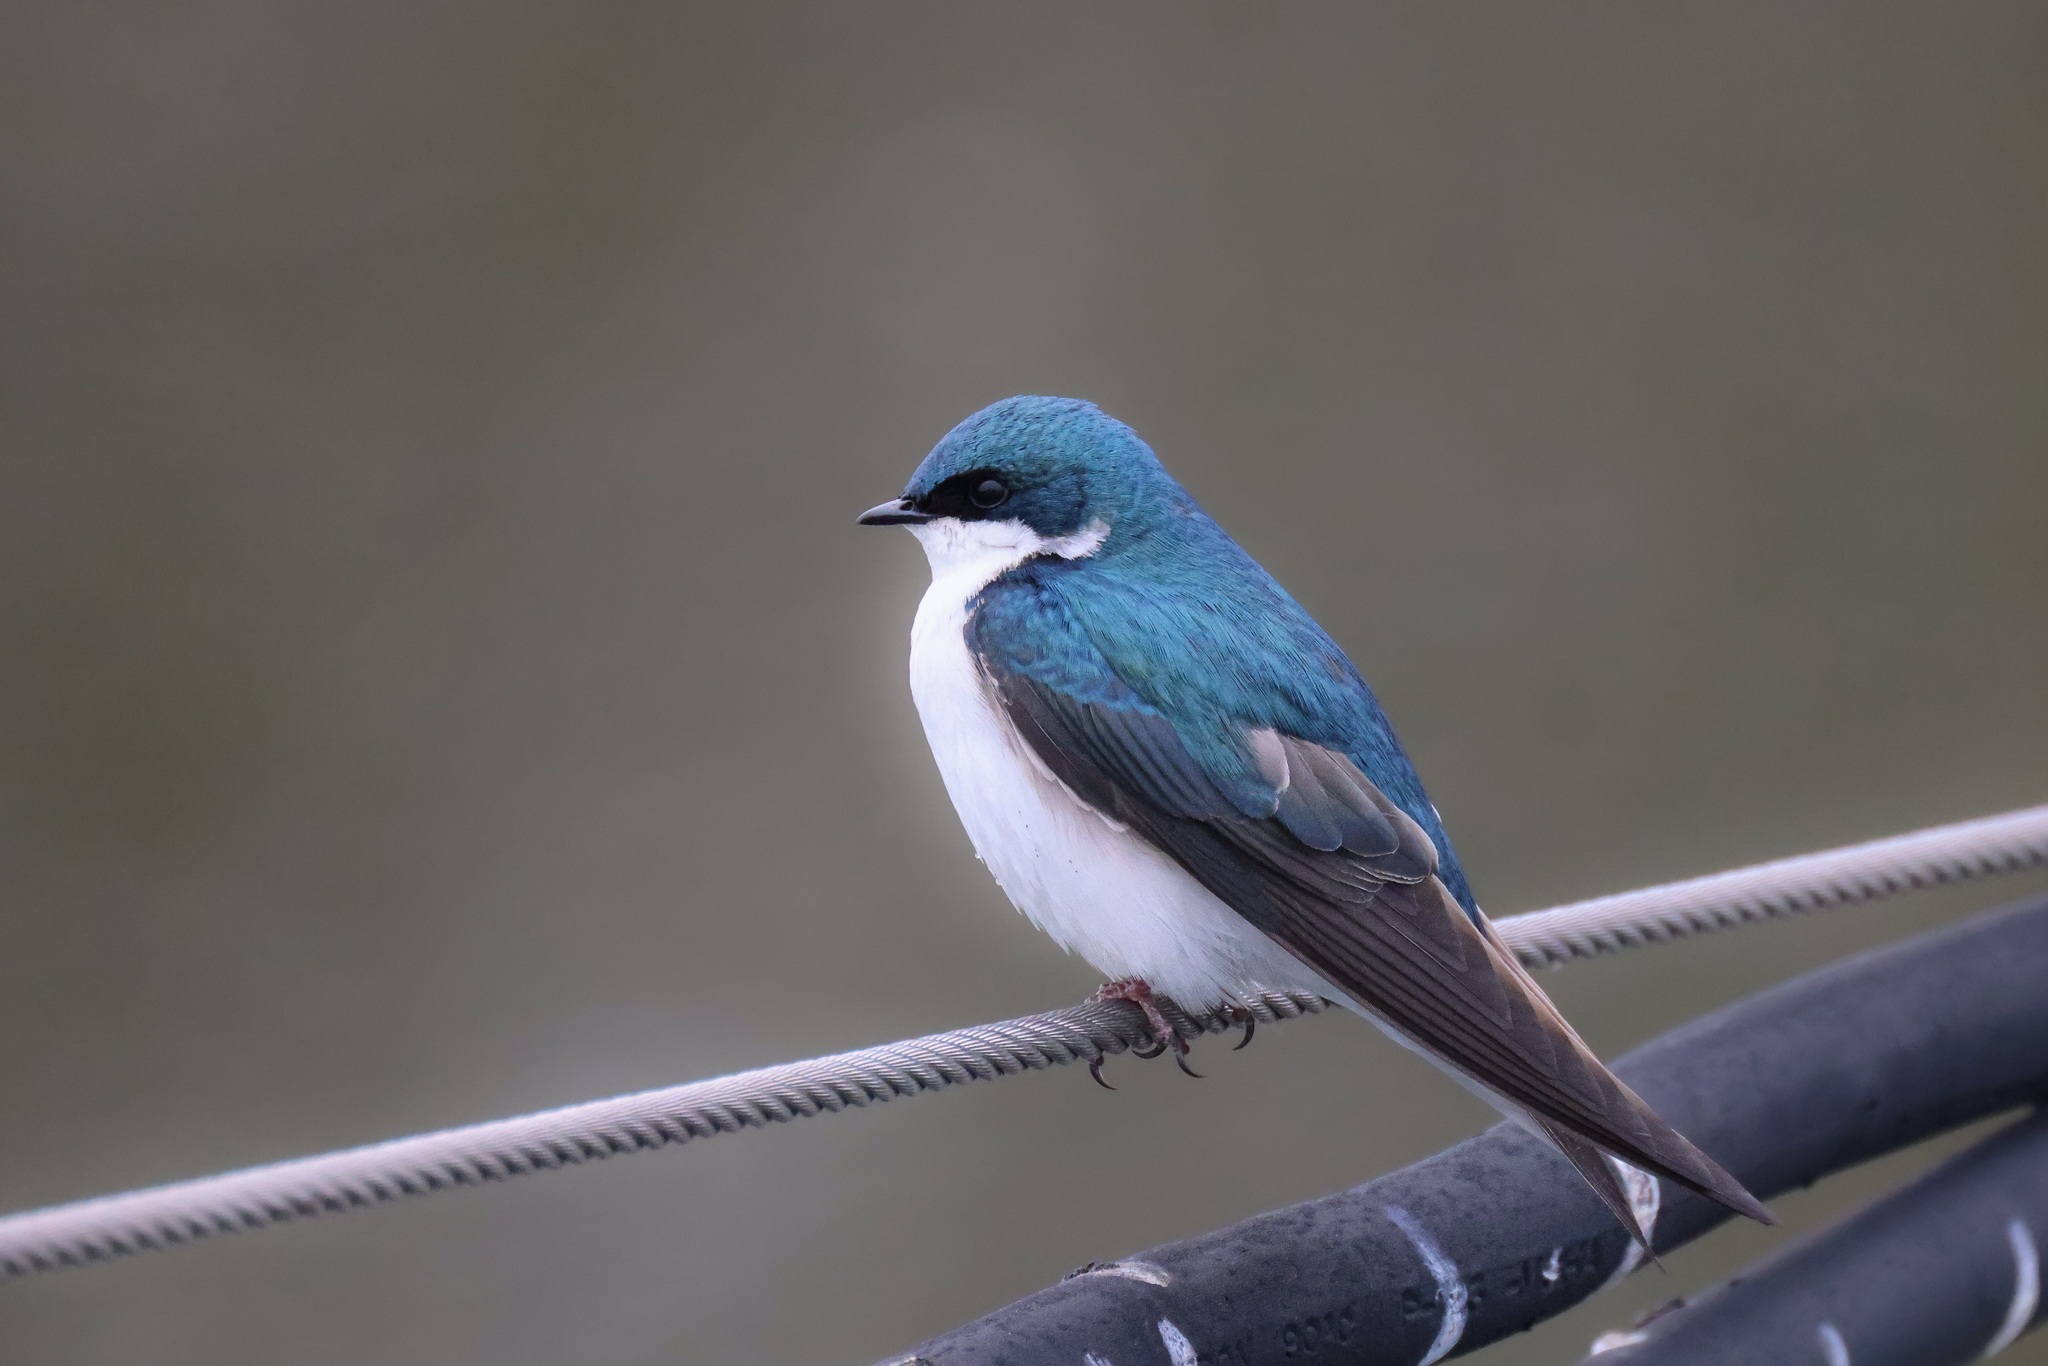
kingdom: Animalia
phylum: Chordata
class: Aves
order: Passeriformes
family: Hirundinidae
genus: Tachycineta
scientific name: Tachycineta bicolor
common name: Tree swallow
